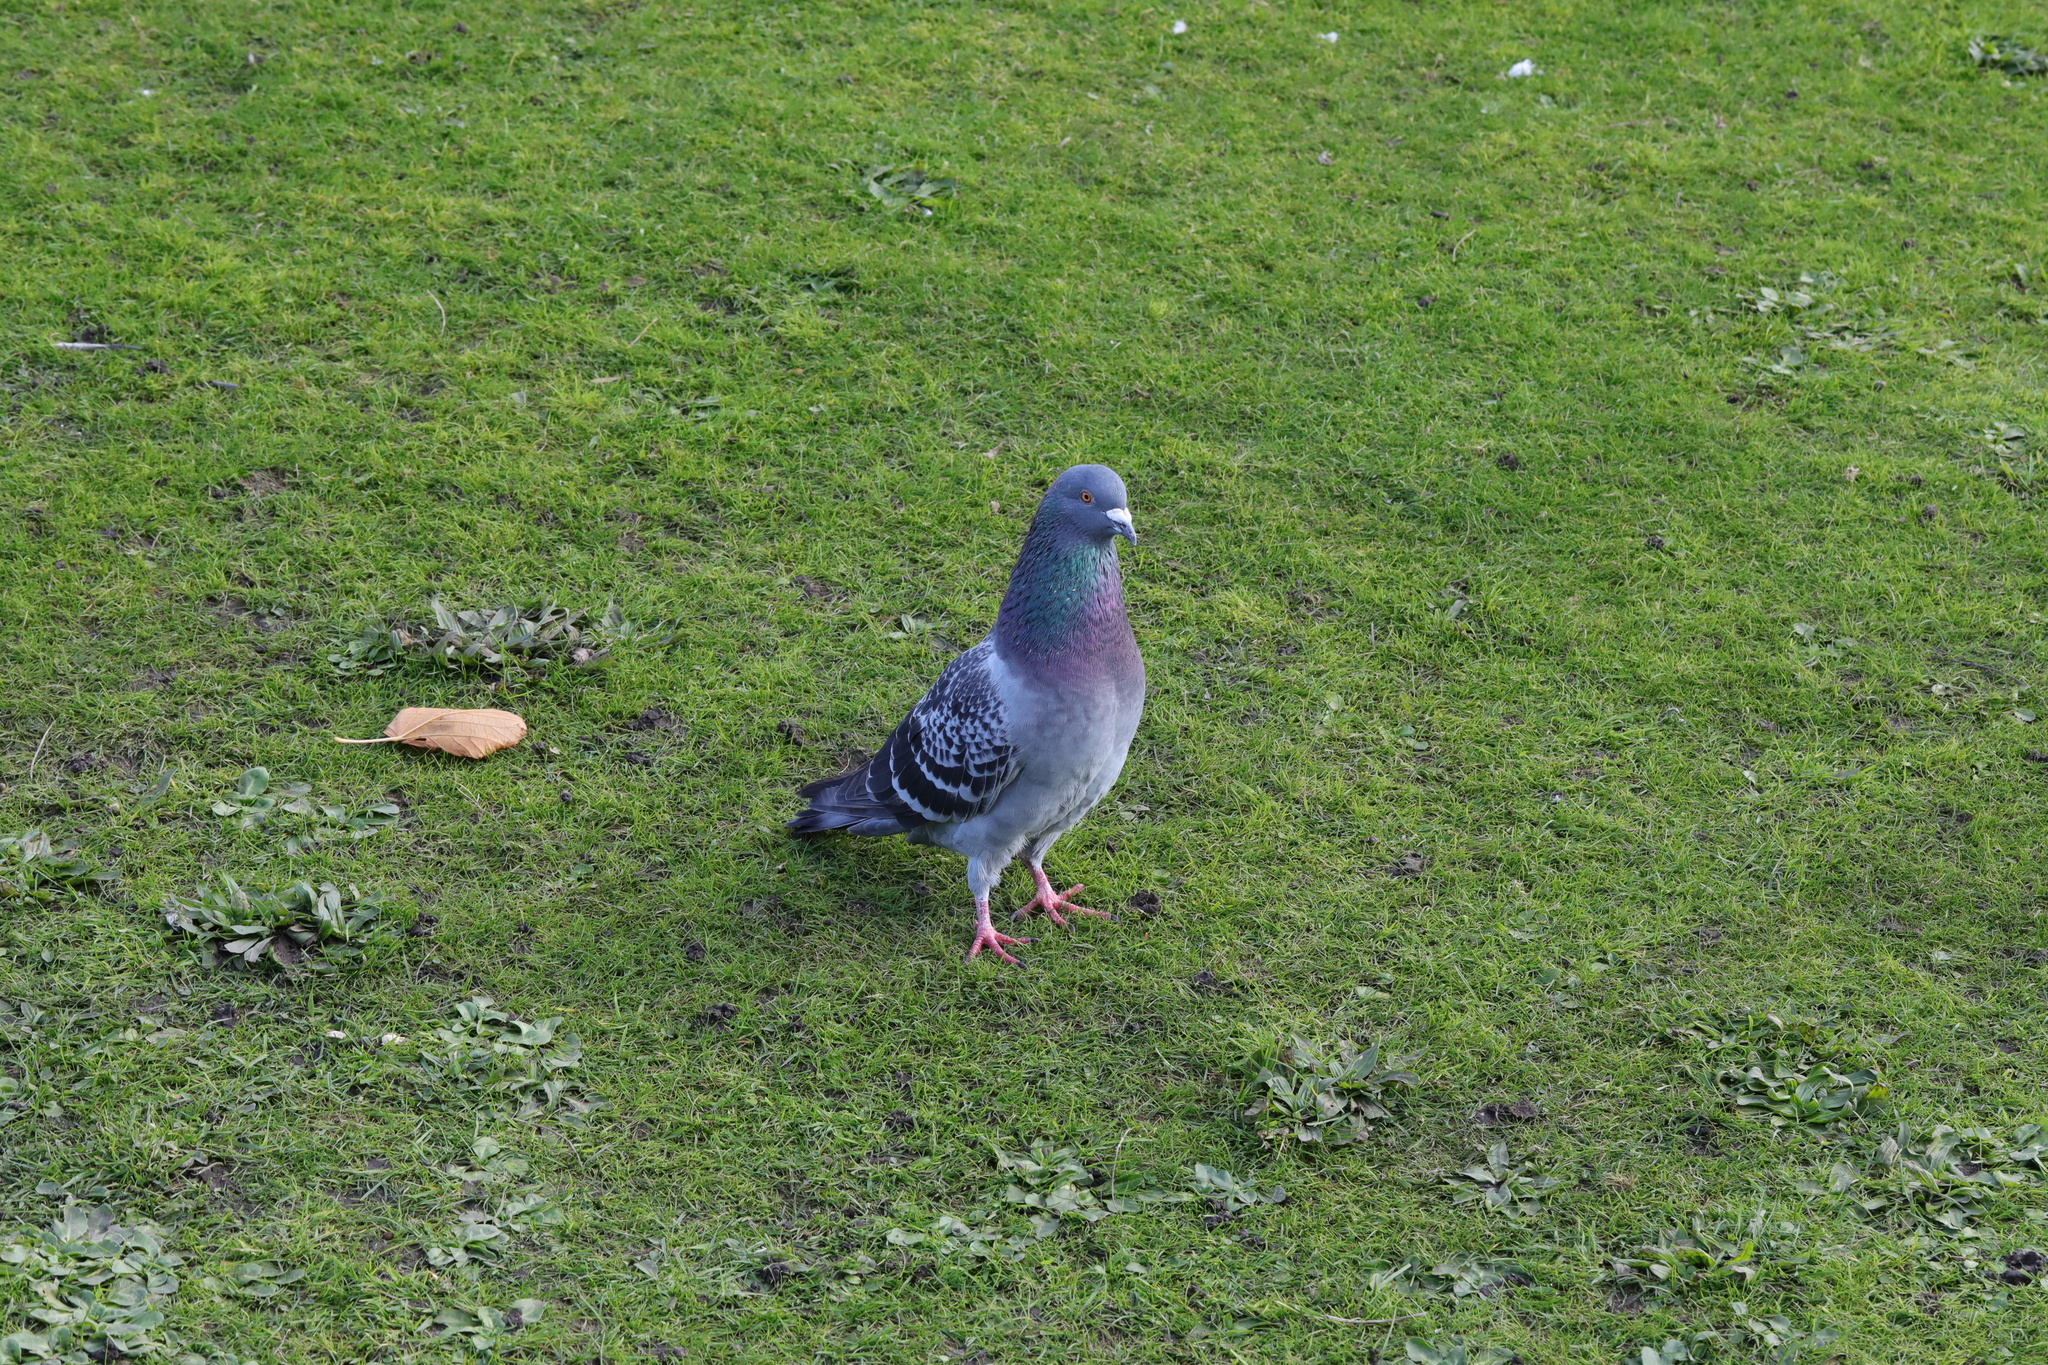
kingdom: Animalia
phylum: Chordata
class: Aves
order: Columbiformes
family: Columbidae
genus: Columba
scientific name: Columba livia
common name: Rock pigeon
